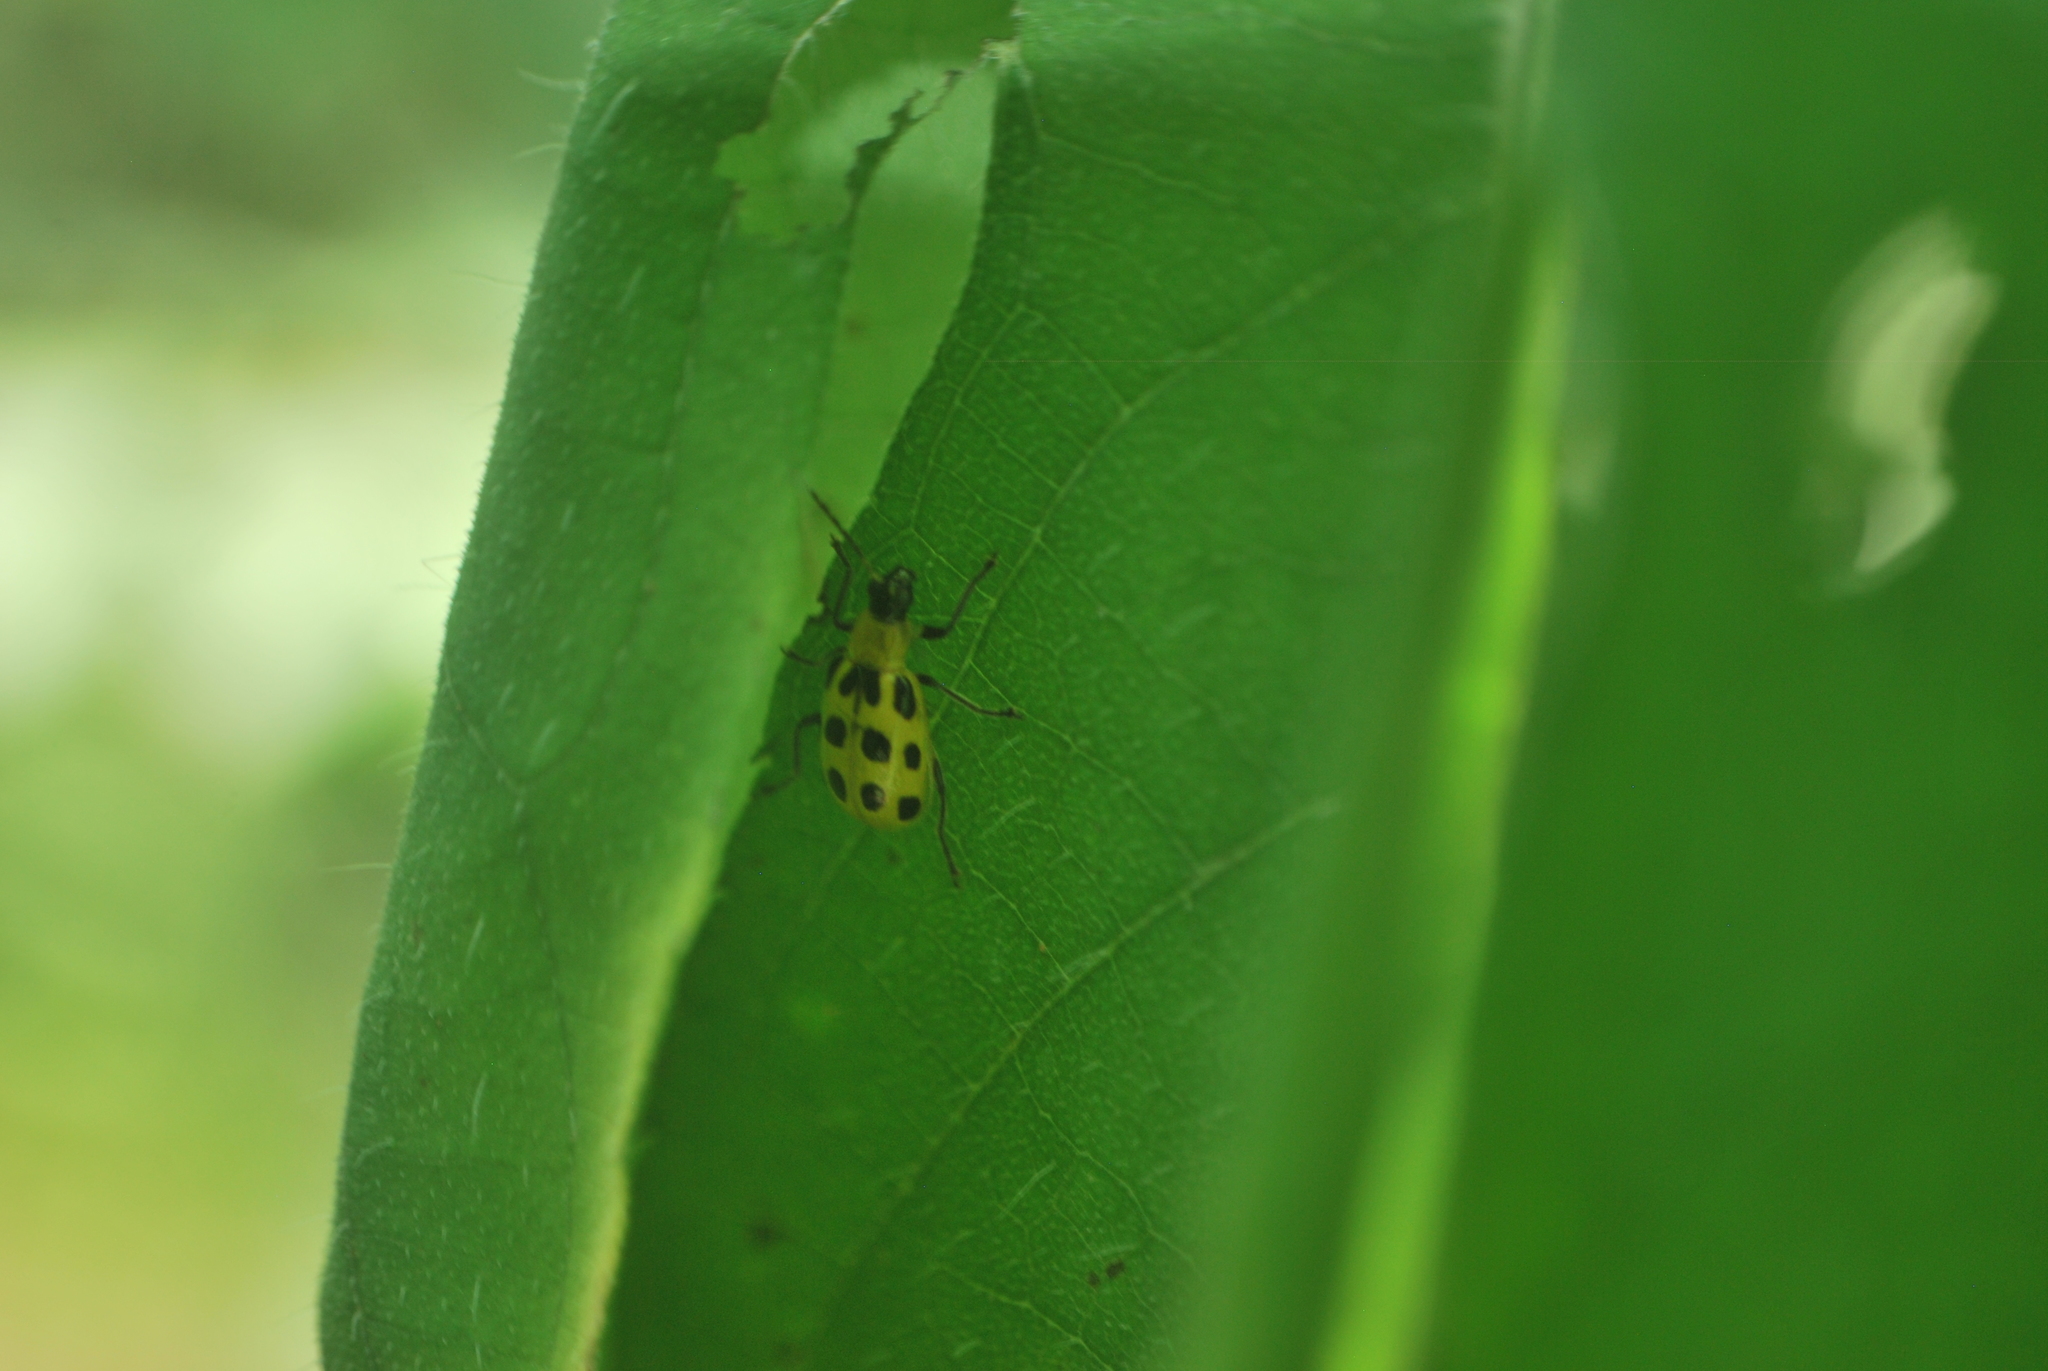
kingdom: Animalia
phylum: Arthropoda
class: Insecta
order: Coleoptera
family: Chrysomelidae
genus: Diabrotica
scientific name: Diabrotica undecimpunctata
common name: Spotted cucumber beetle
